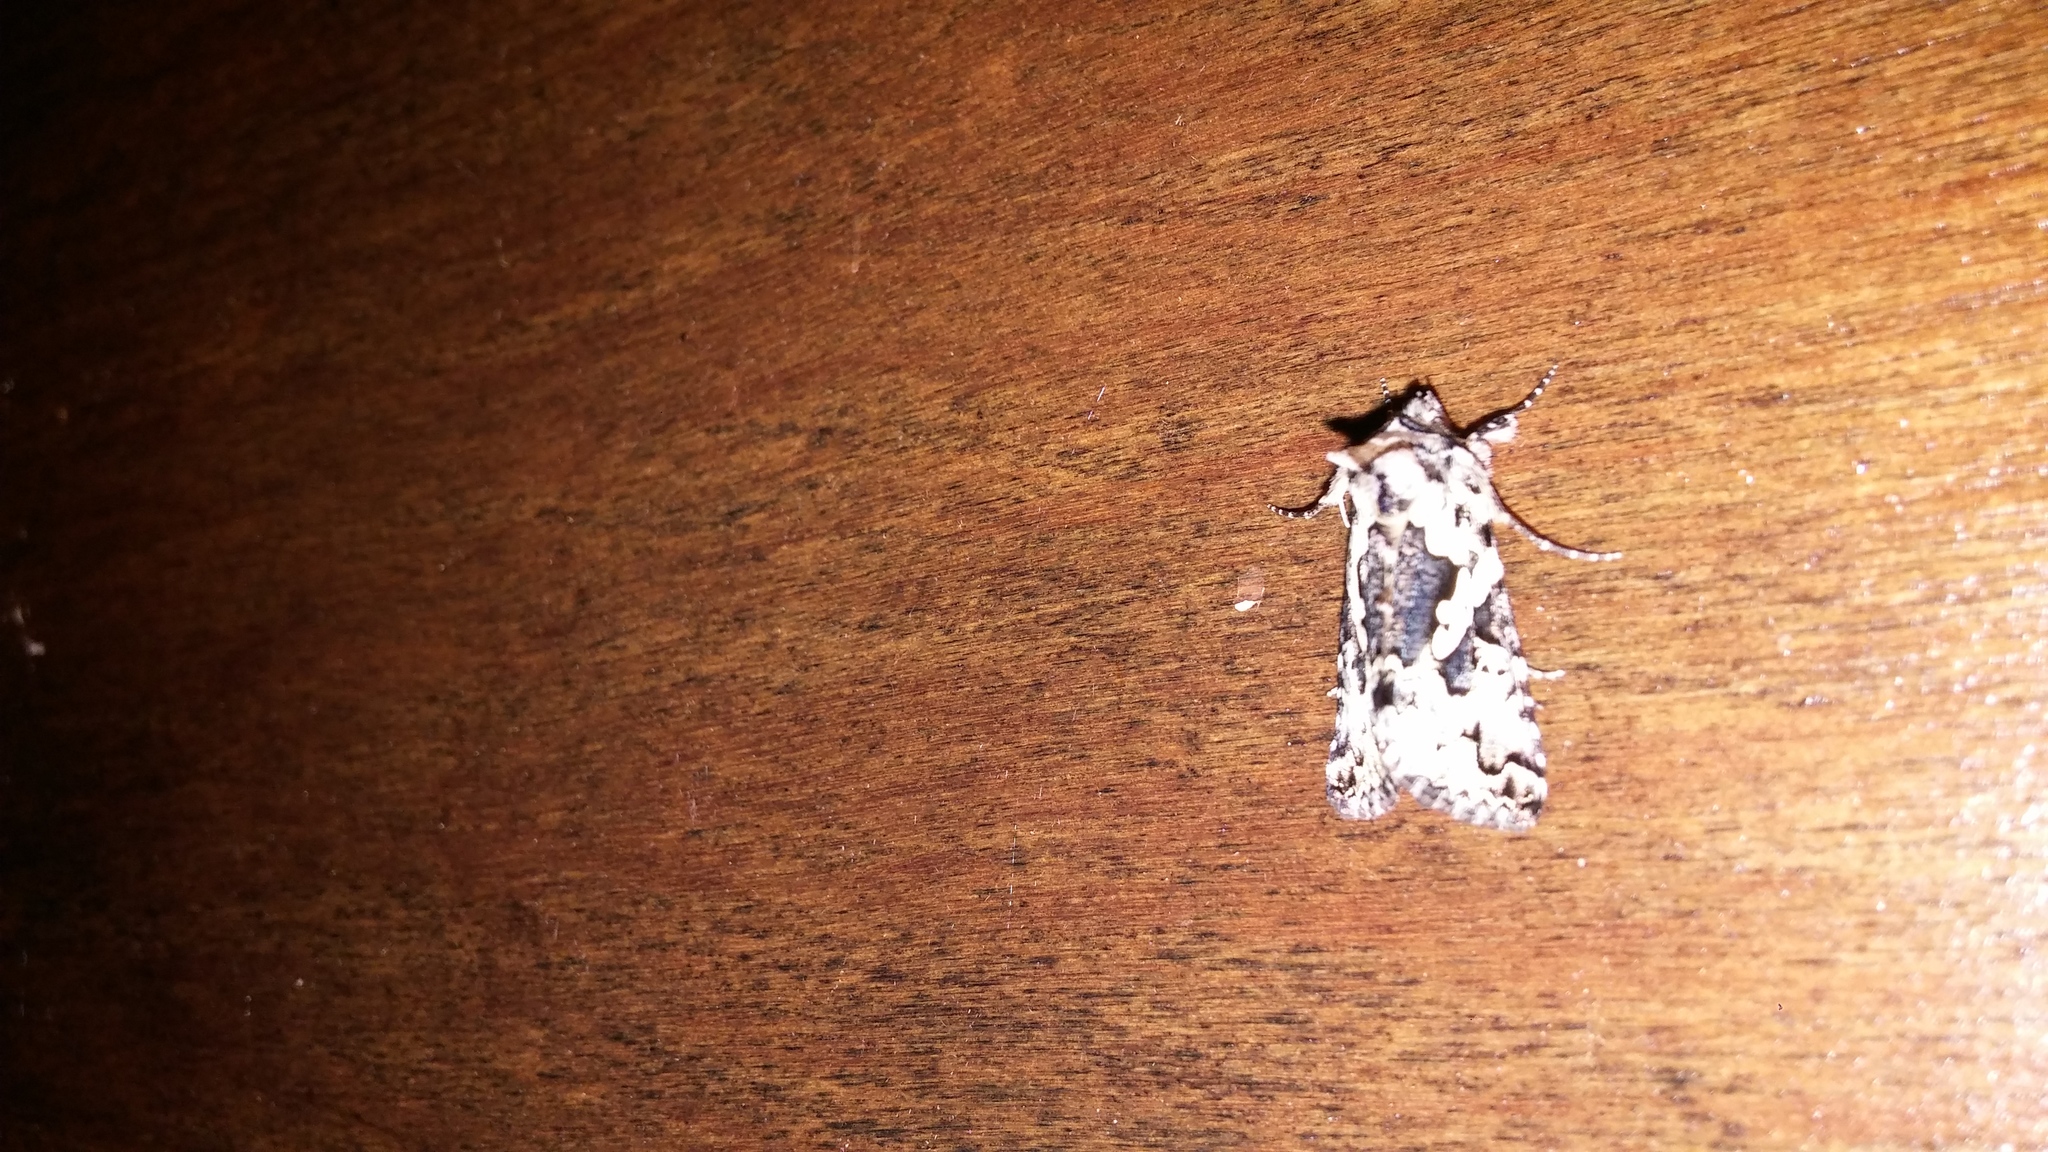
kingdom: Animalia
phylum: Arthropoda
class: Insecta
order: Lepidoptera
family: Noctuidae
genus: Syngrapha
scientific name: Syngrapha rectangula
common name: Angulated cutworm
